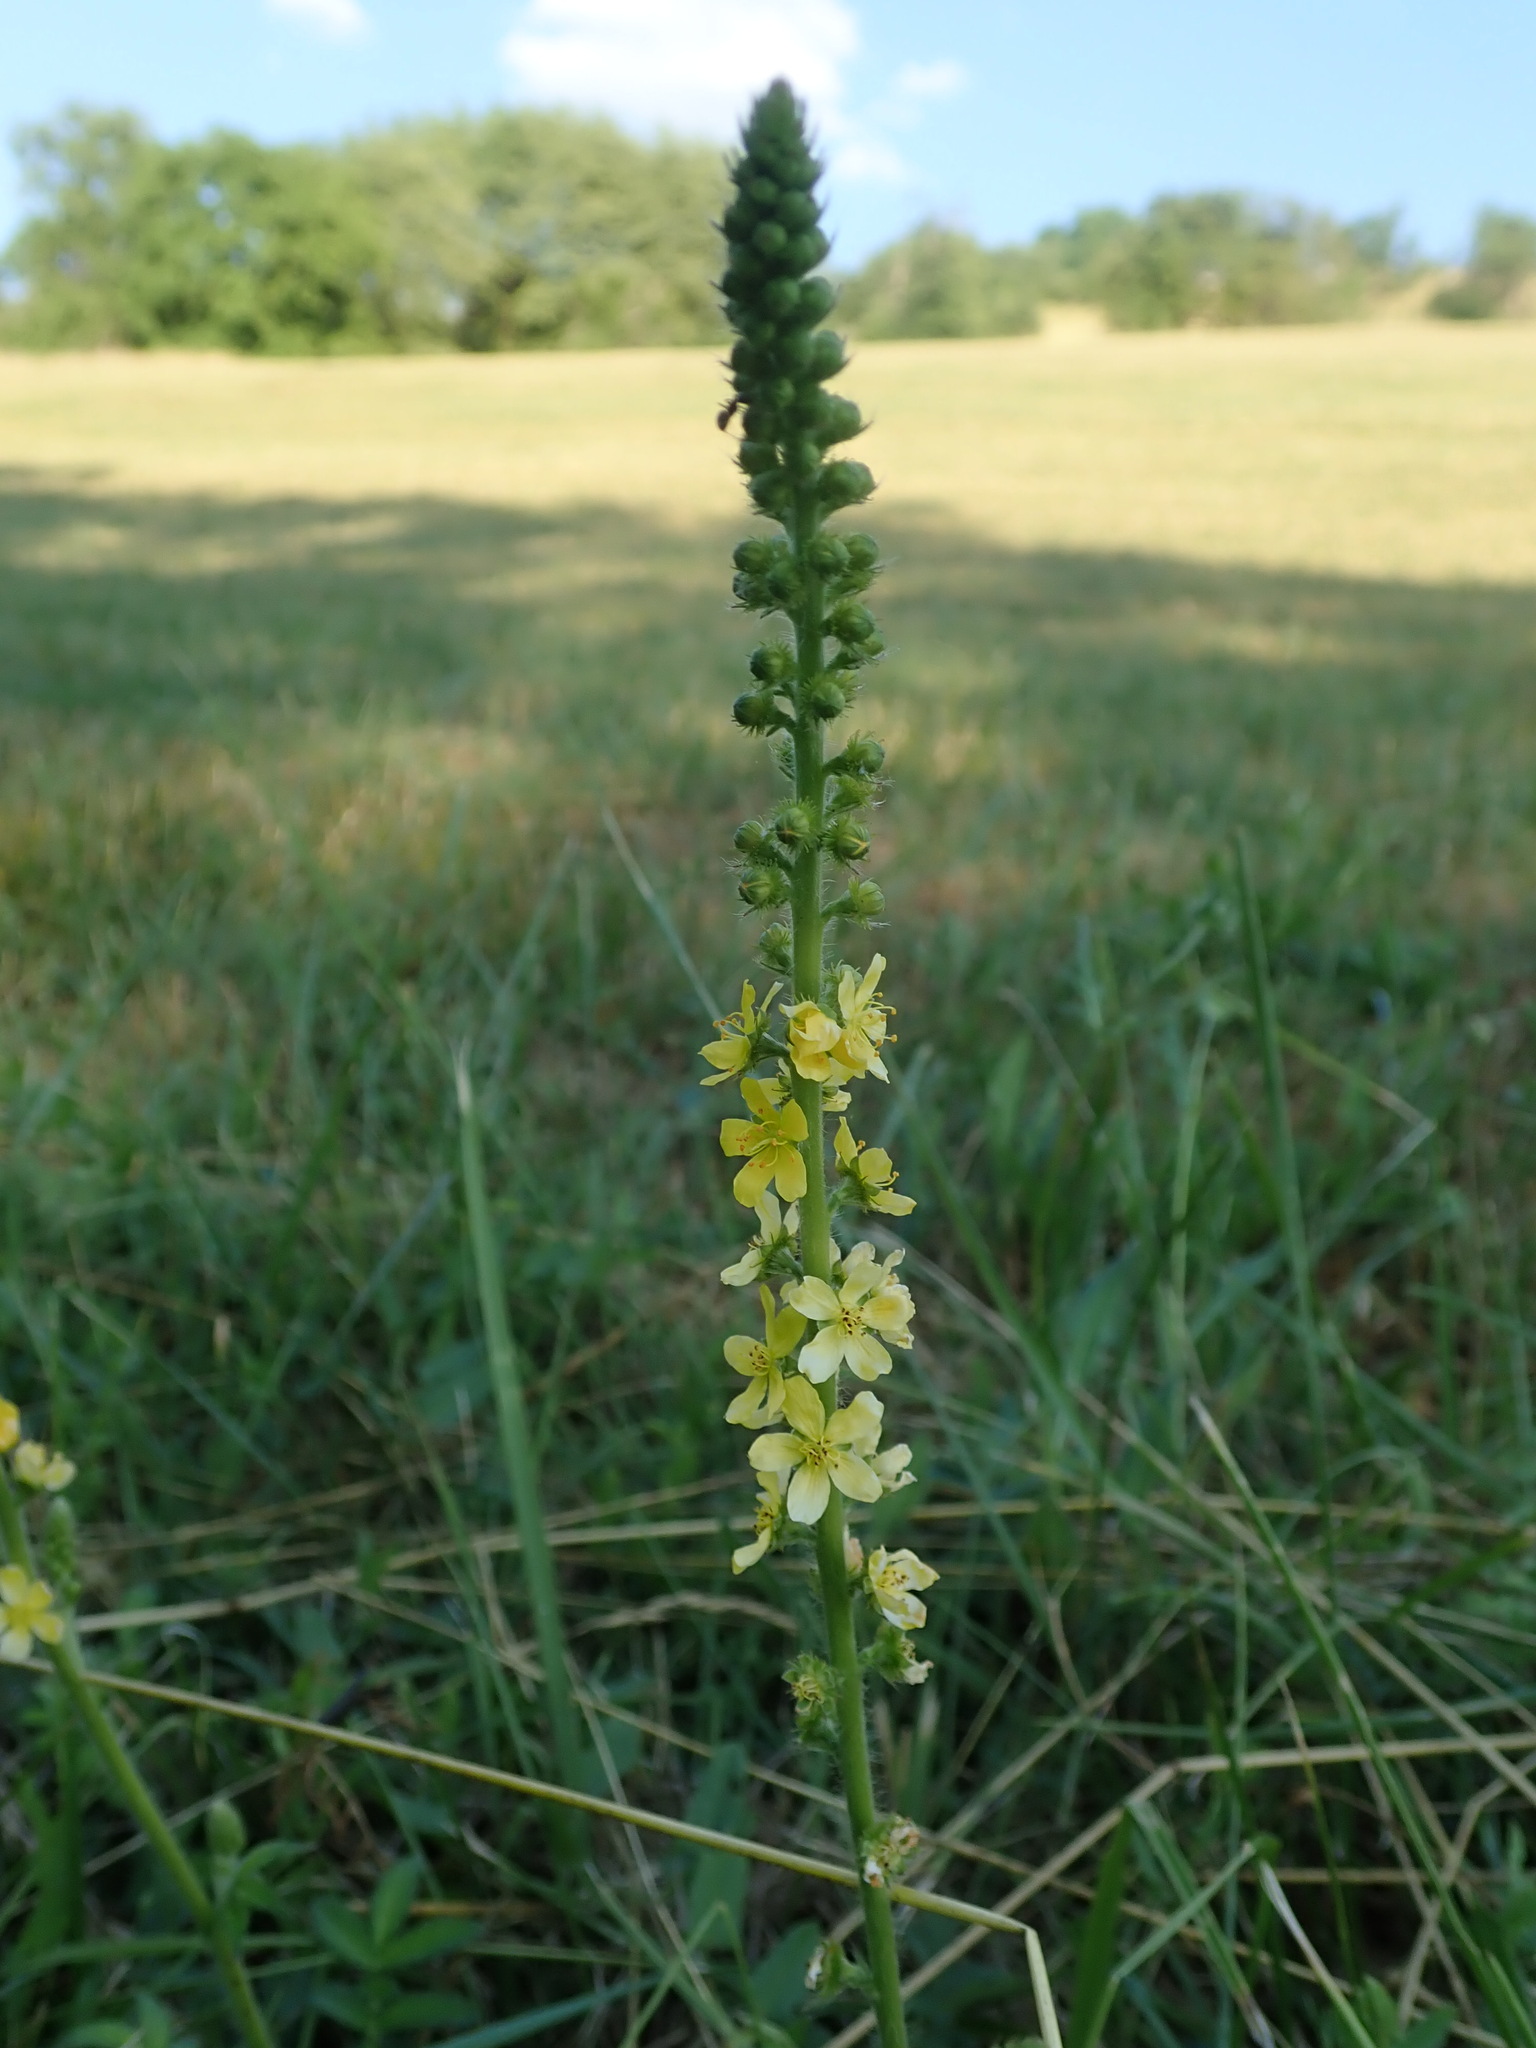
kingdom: Plantae
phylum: Tracheophyta
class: Magnoliopsida
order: Rosales
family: Rosaceae
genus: Agrimonia
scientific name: Agrimonia eupatoria
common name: Agrimony
